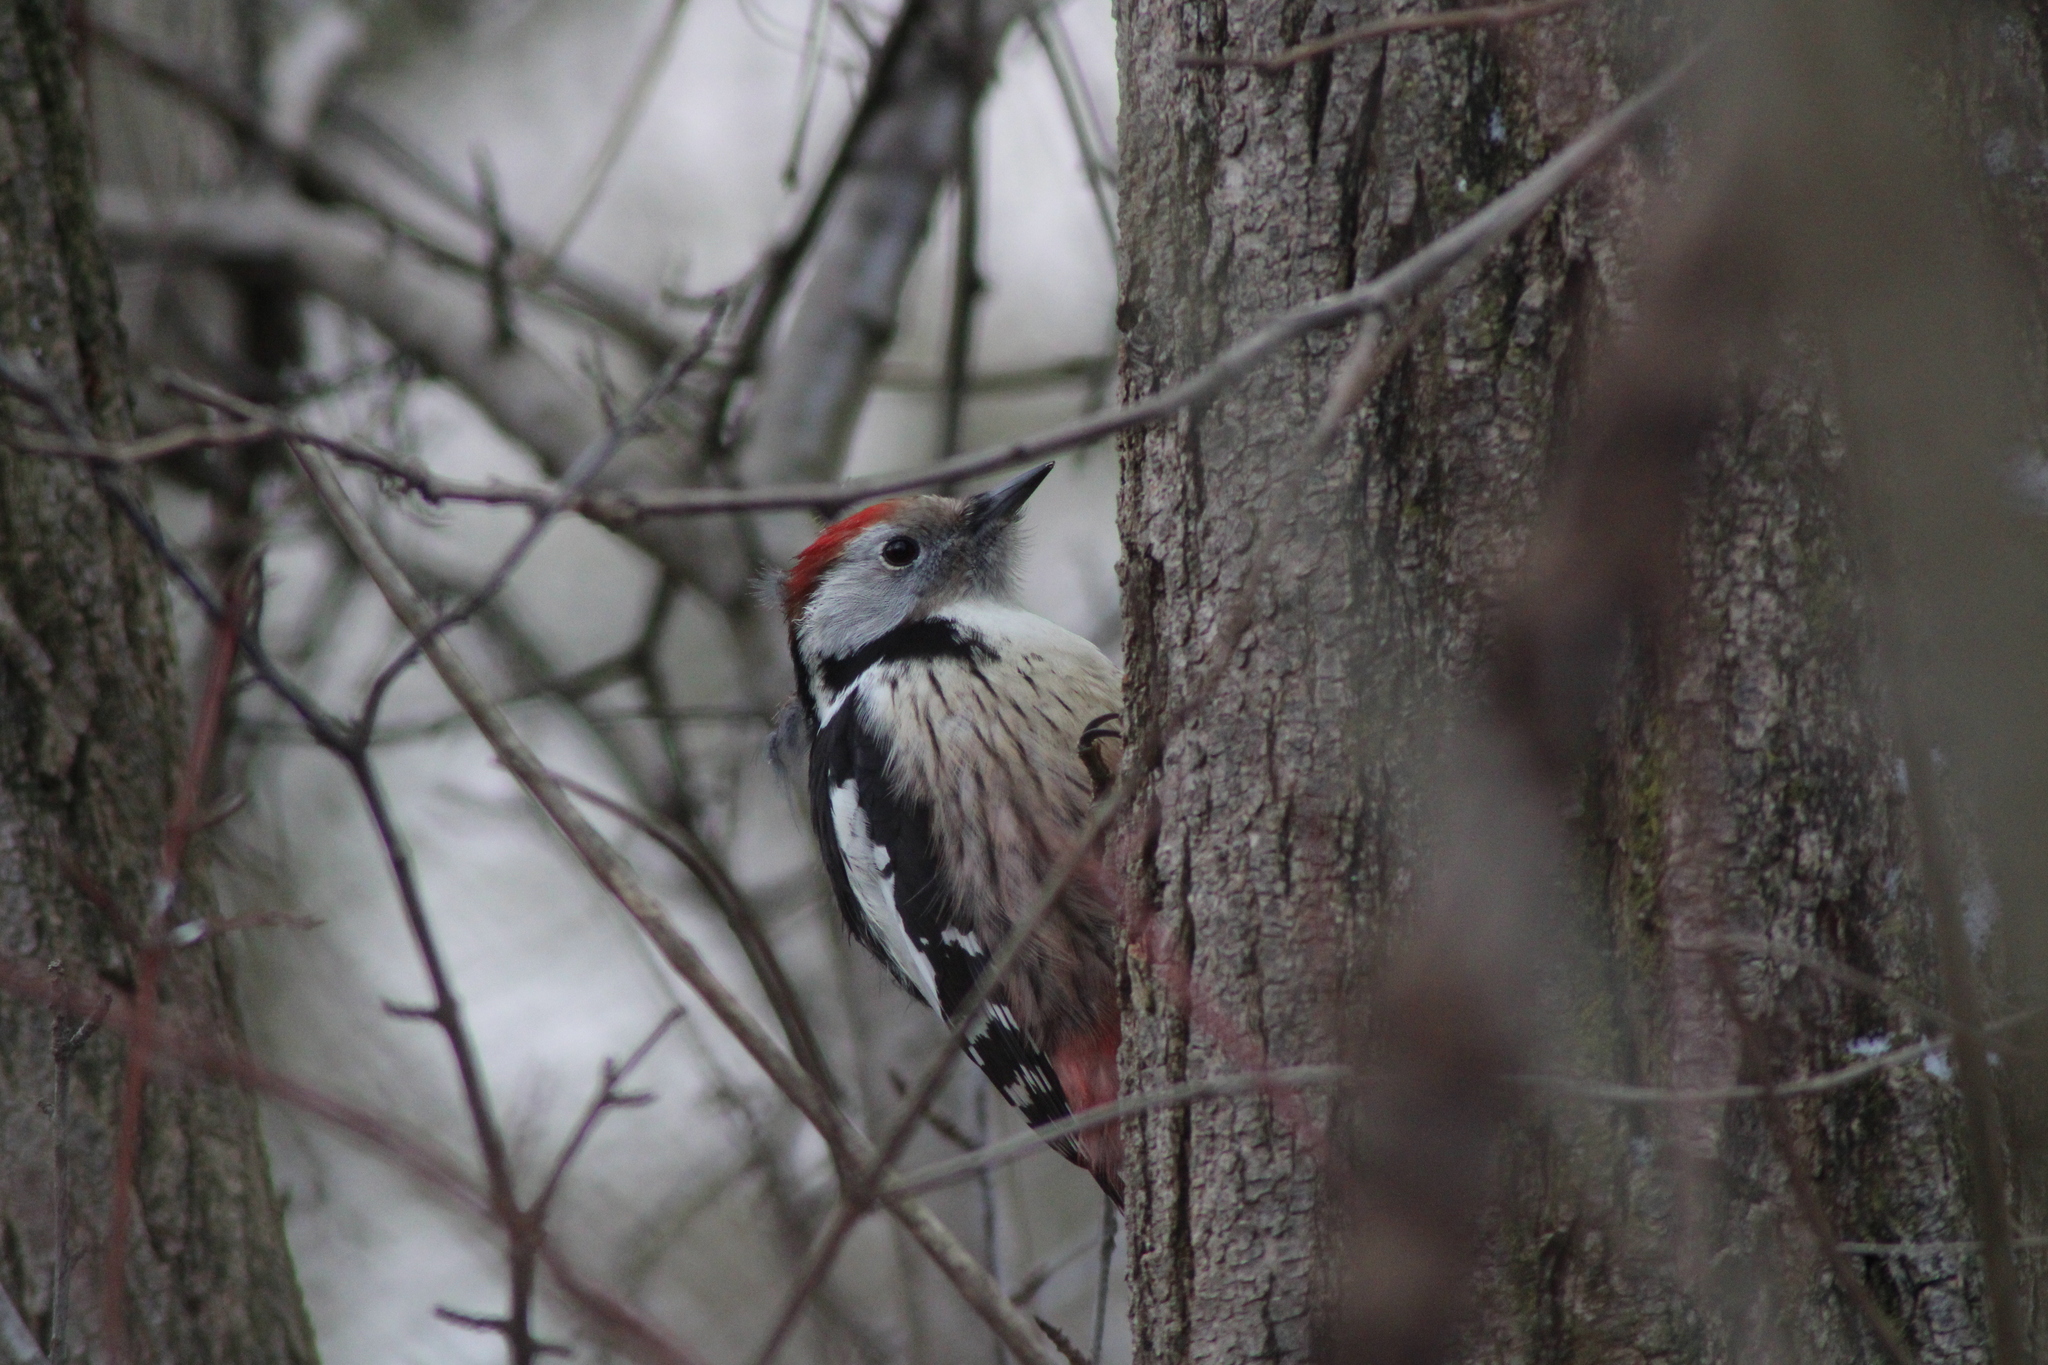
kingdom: Animalia
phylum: Chordata
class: Aves
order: Piciformes
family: Picidae
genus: Dendrocoptes
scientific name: Dendrocoptes medius
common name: Middle spotted woodpecker
